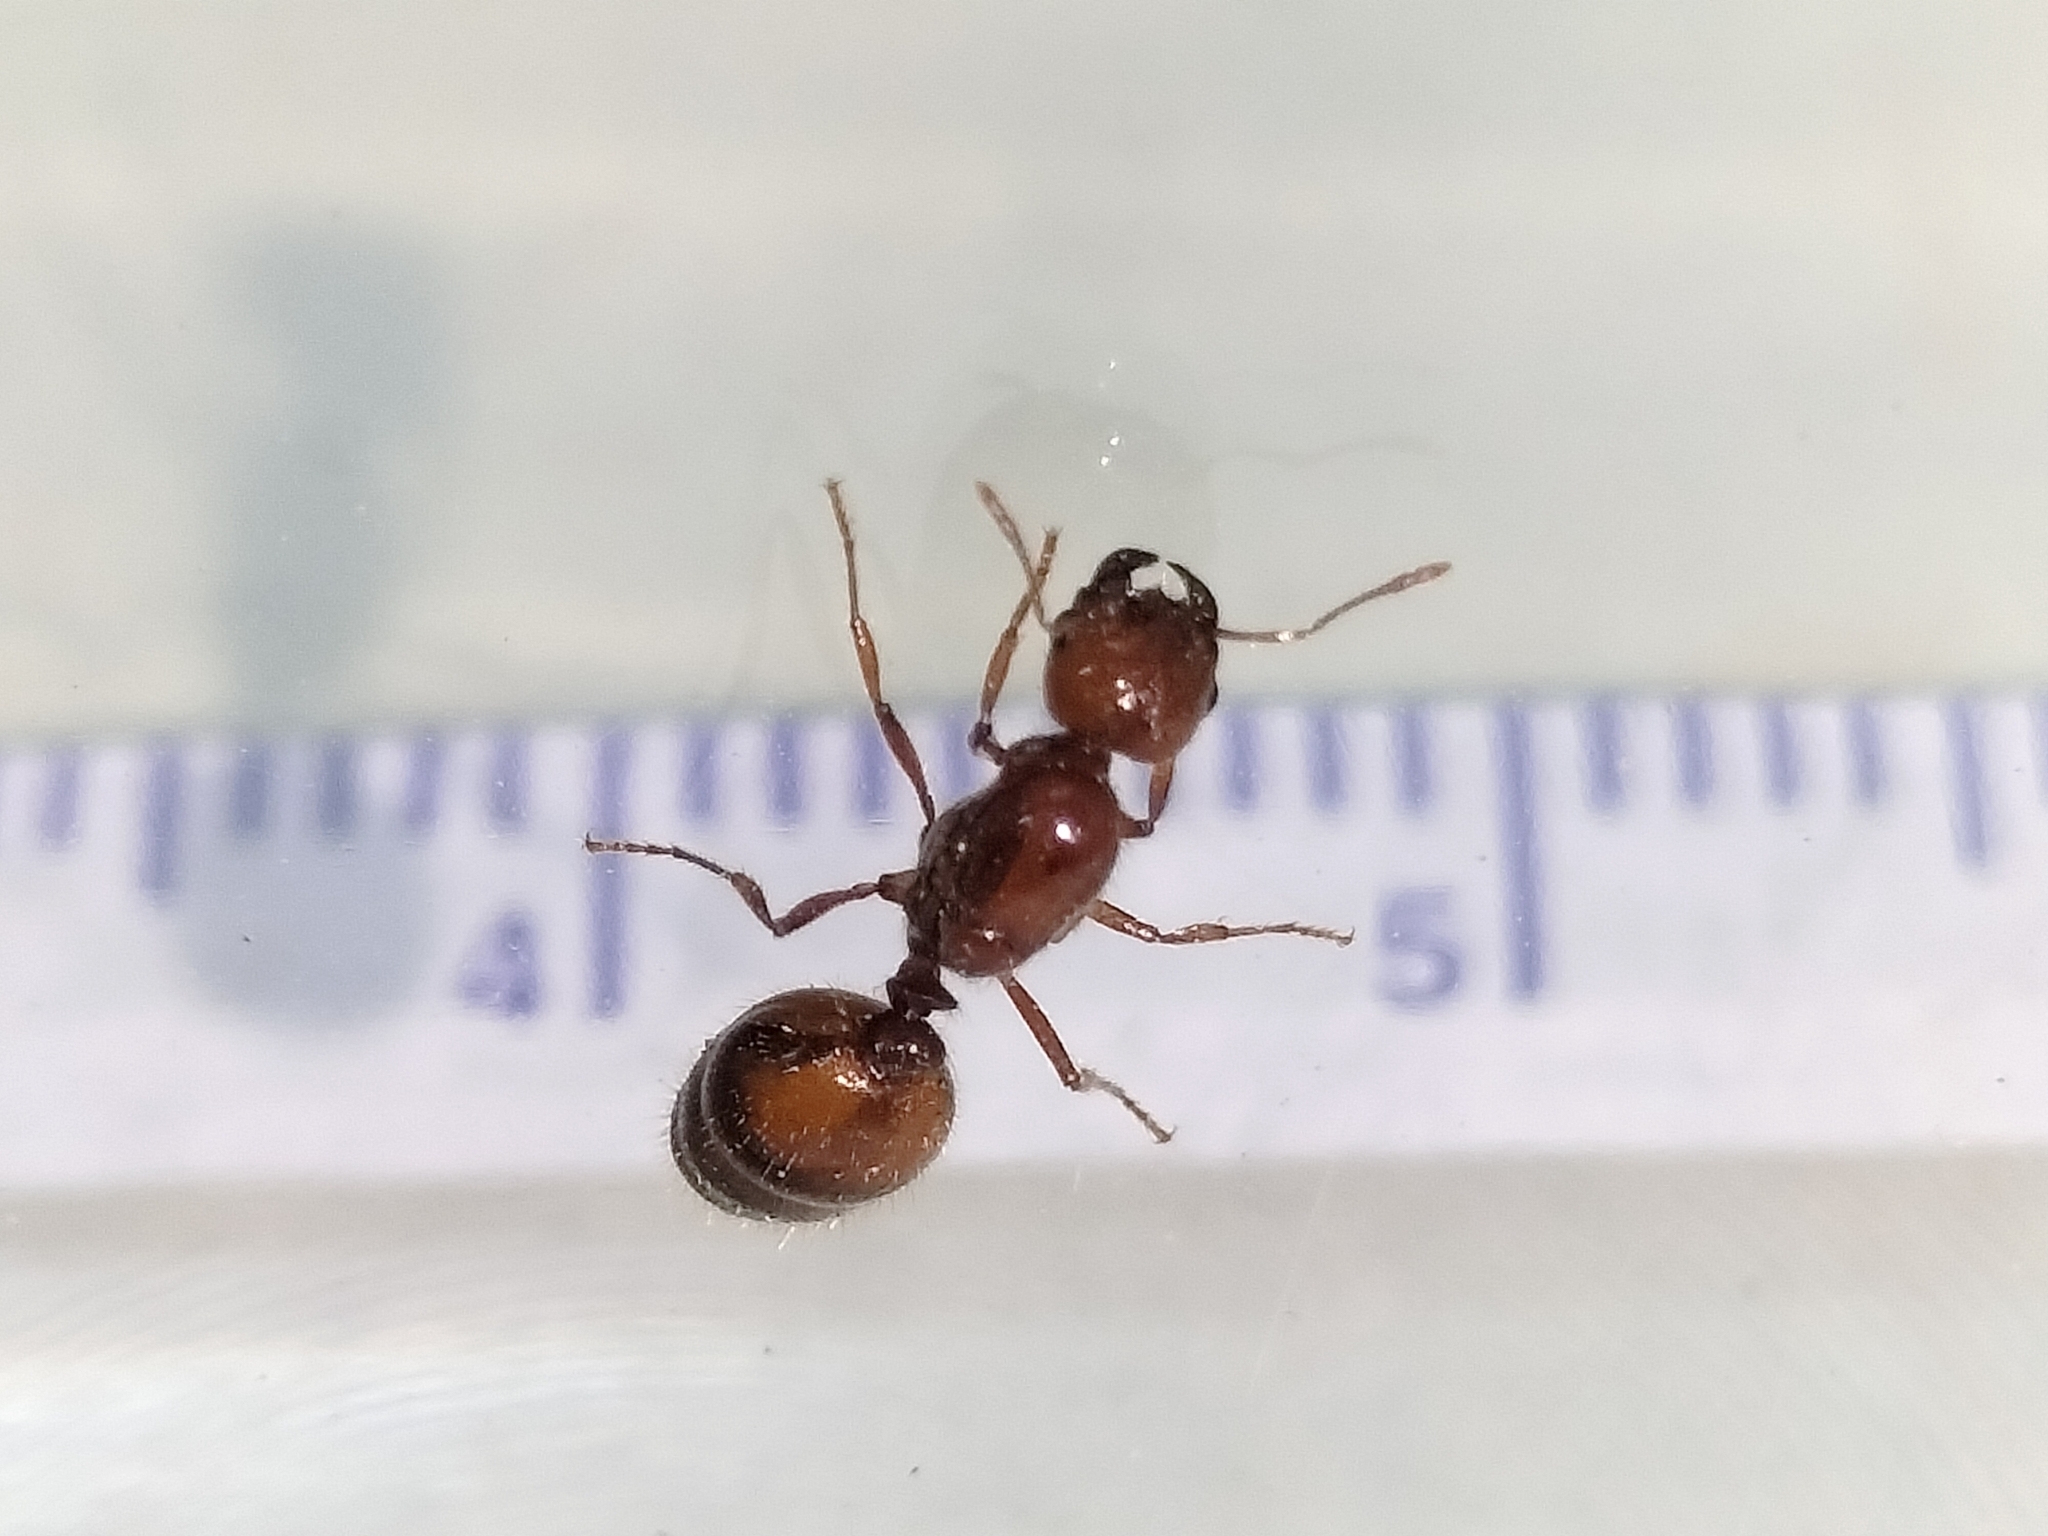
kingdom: Animalia
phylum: Arthropoda
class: Insecta
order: Hymenoptera
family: Formicidae
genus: Solenopsis
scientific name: Solenopsis geminata
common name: Tropical fire ant
